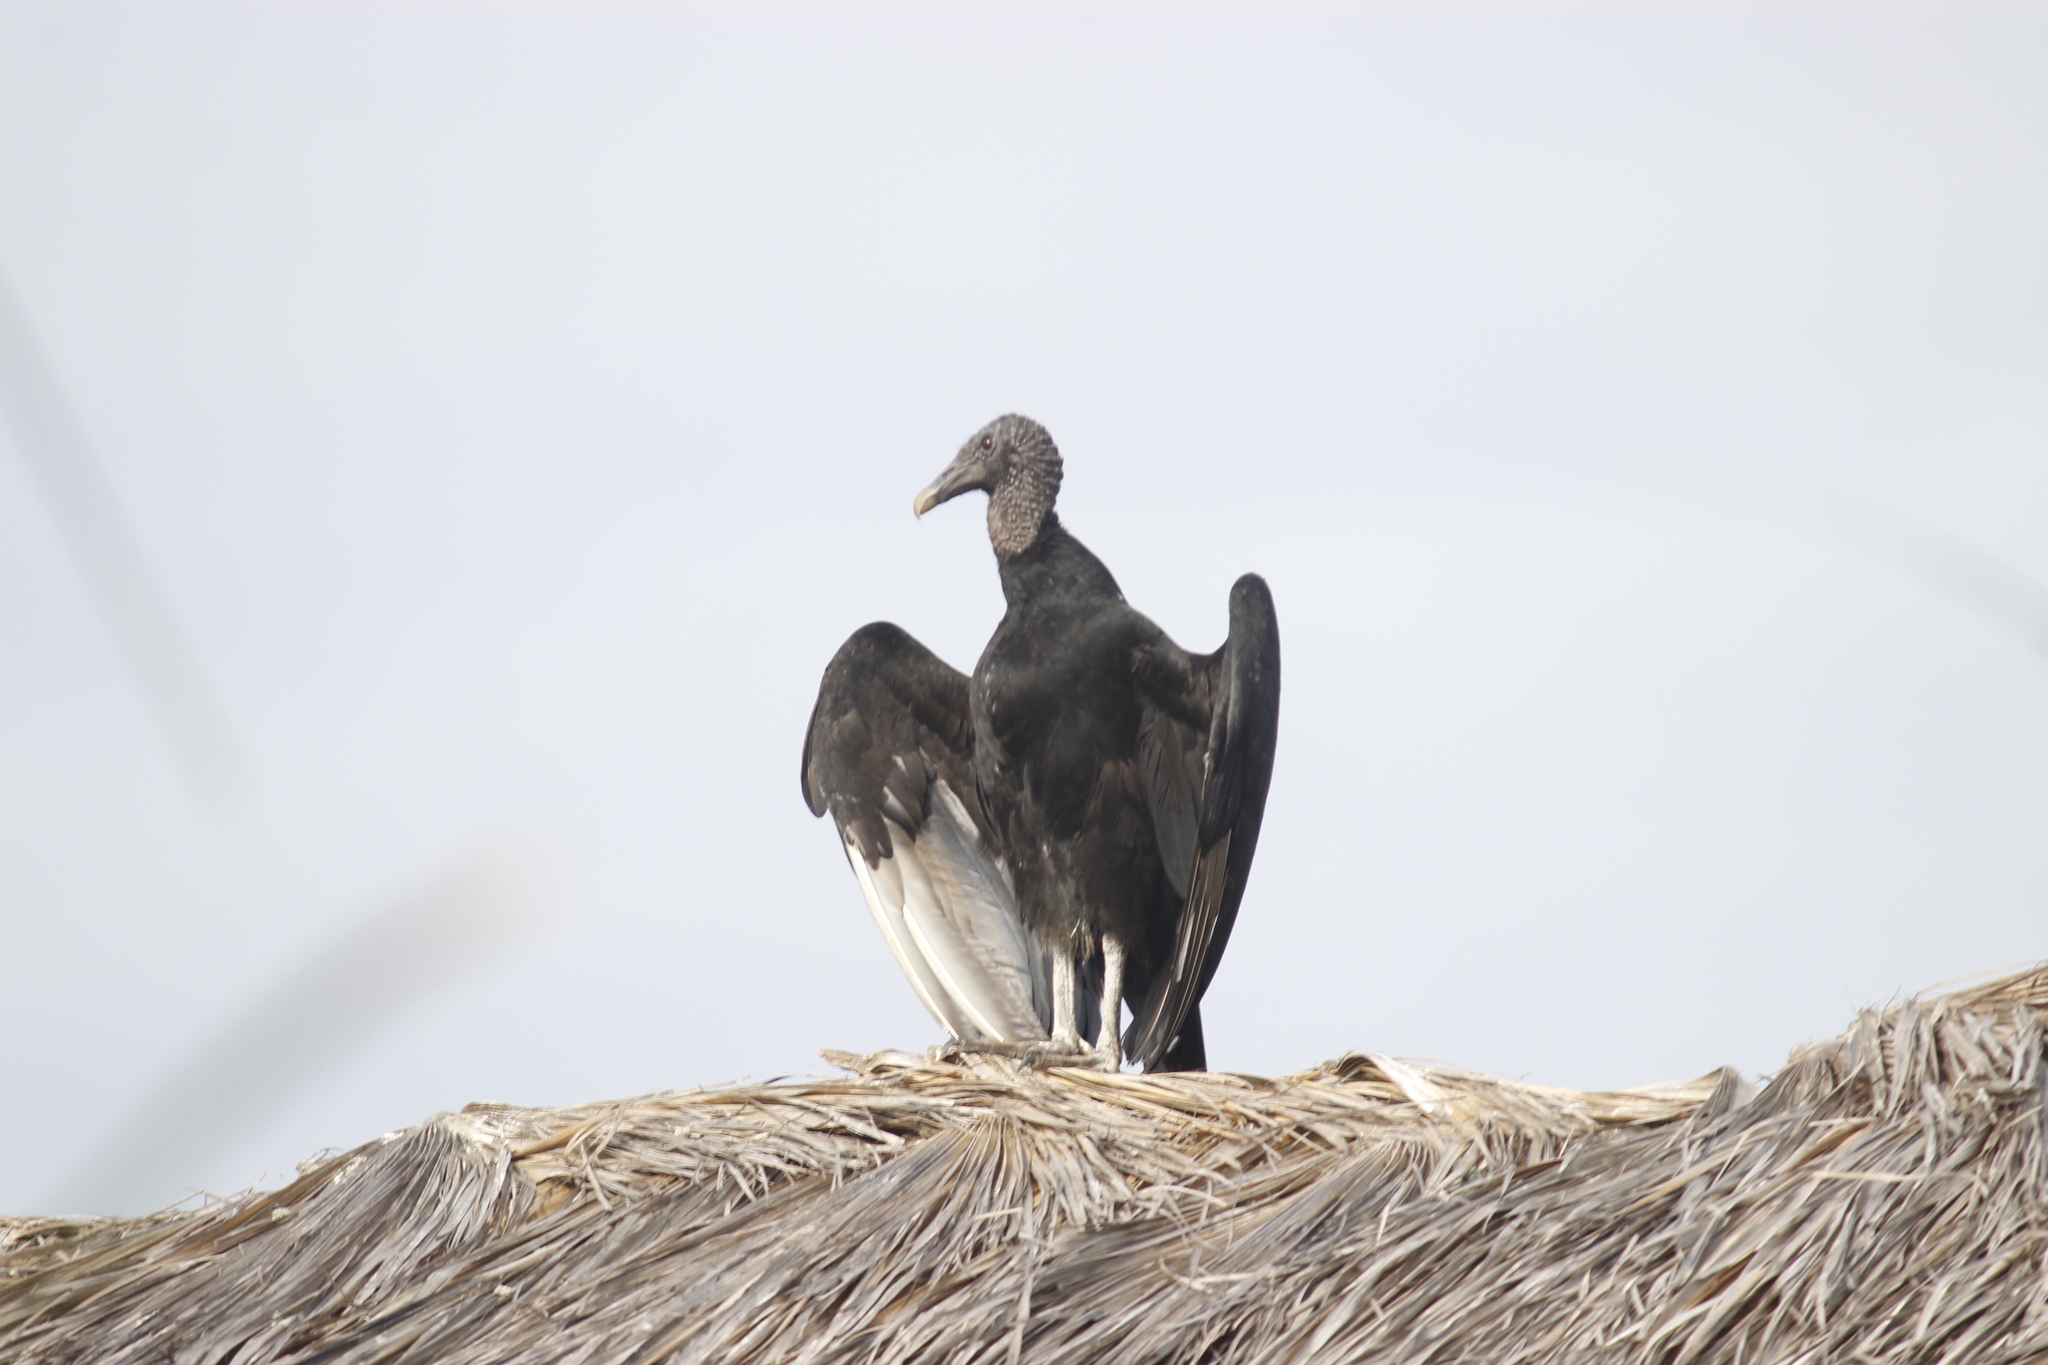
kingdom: Animalia
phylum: Chordata
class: Aves
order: Accipitriformes
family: Cathartidae
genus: Coragyps
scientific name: Coragyps atratus
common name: Black vulture
